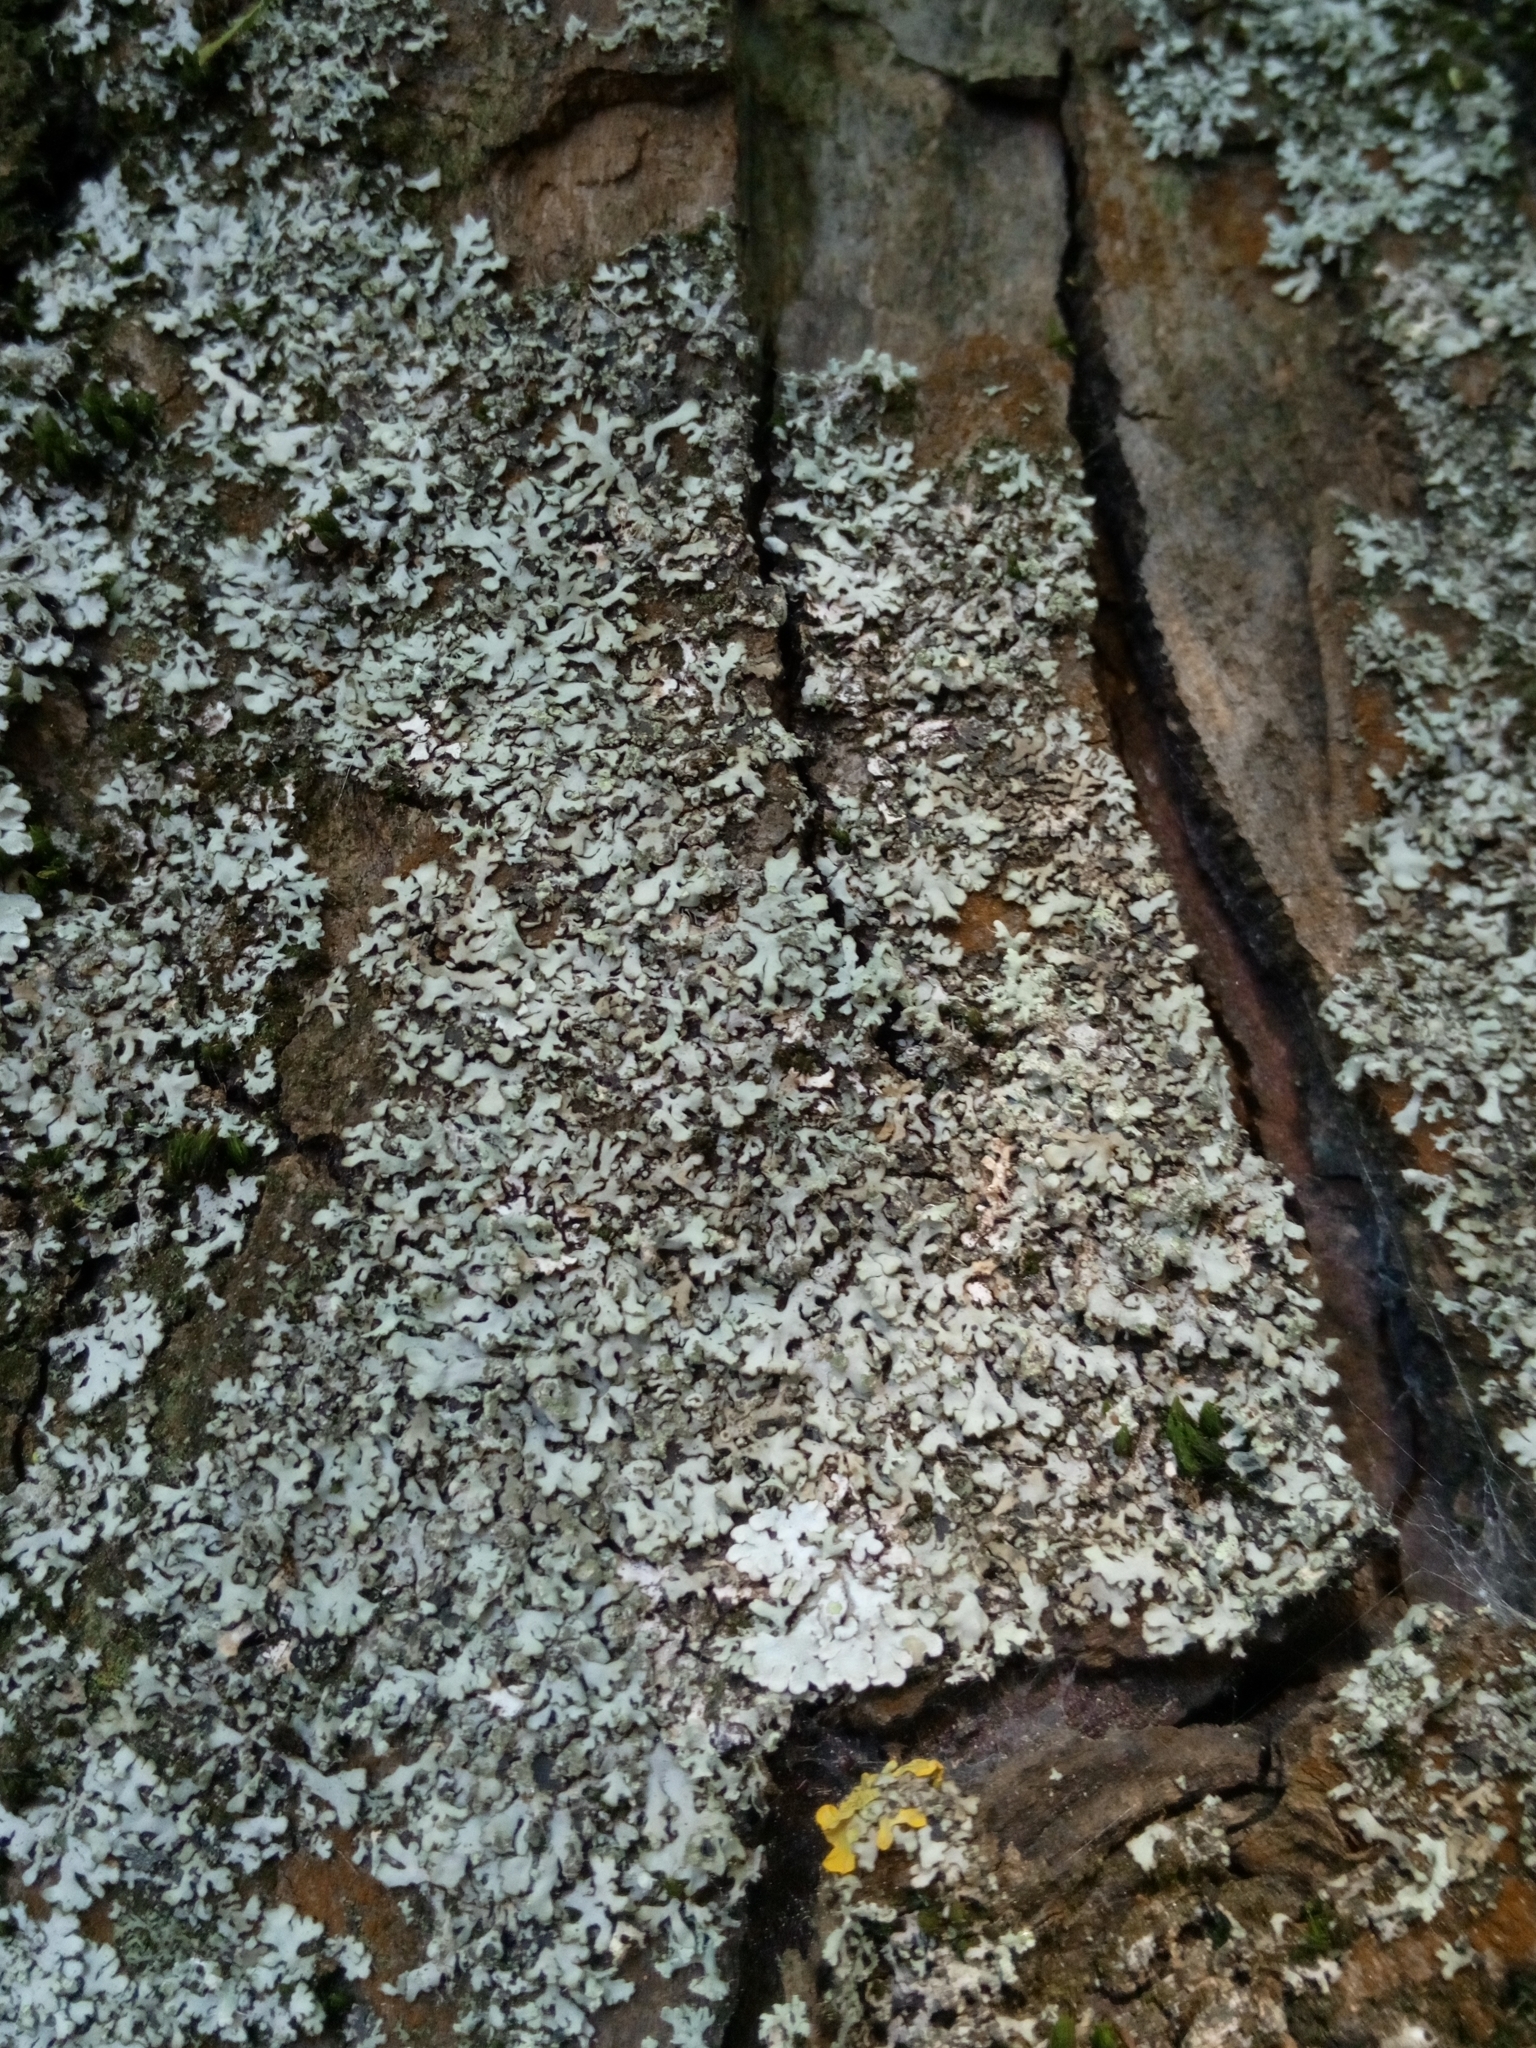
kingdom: Fungi
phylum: Ascomycota
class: Lecanoromycetes
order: Caliciales
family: Physciaceae
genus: Phaeophyscia
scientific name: Phaeophyscia orbicularis
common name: Mealy shadow lichen
